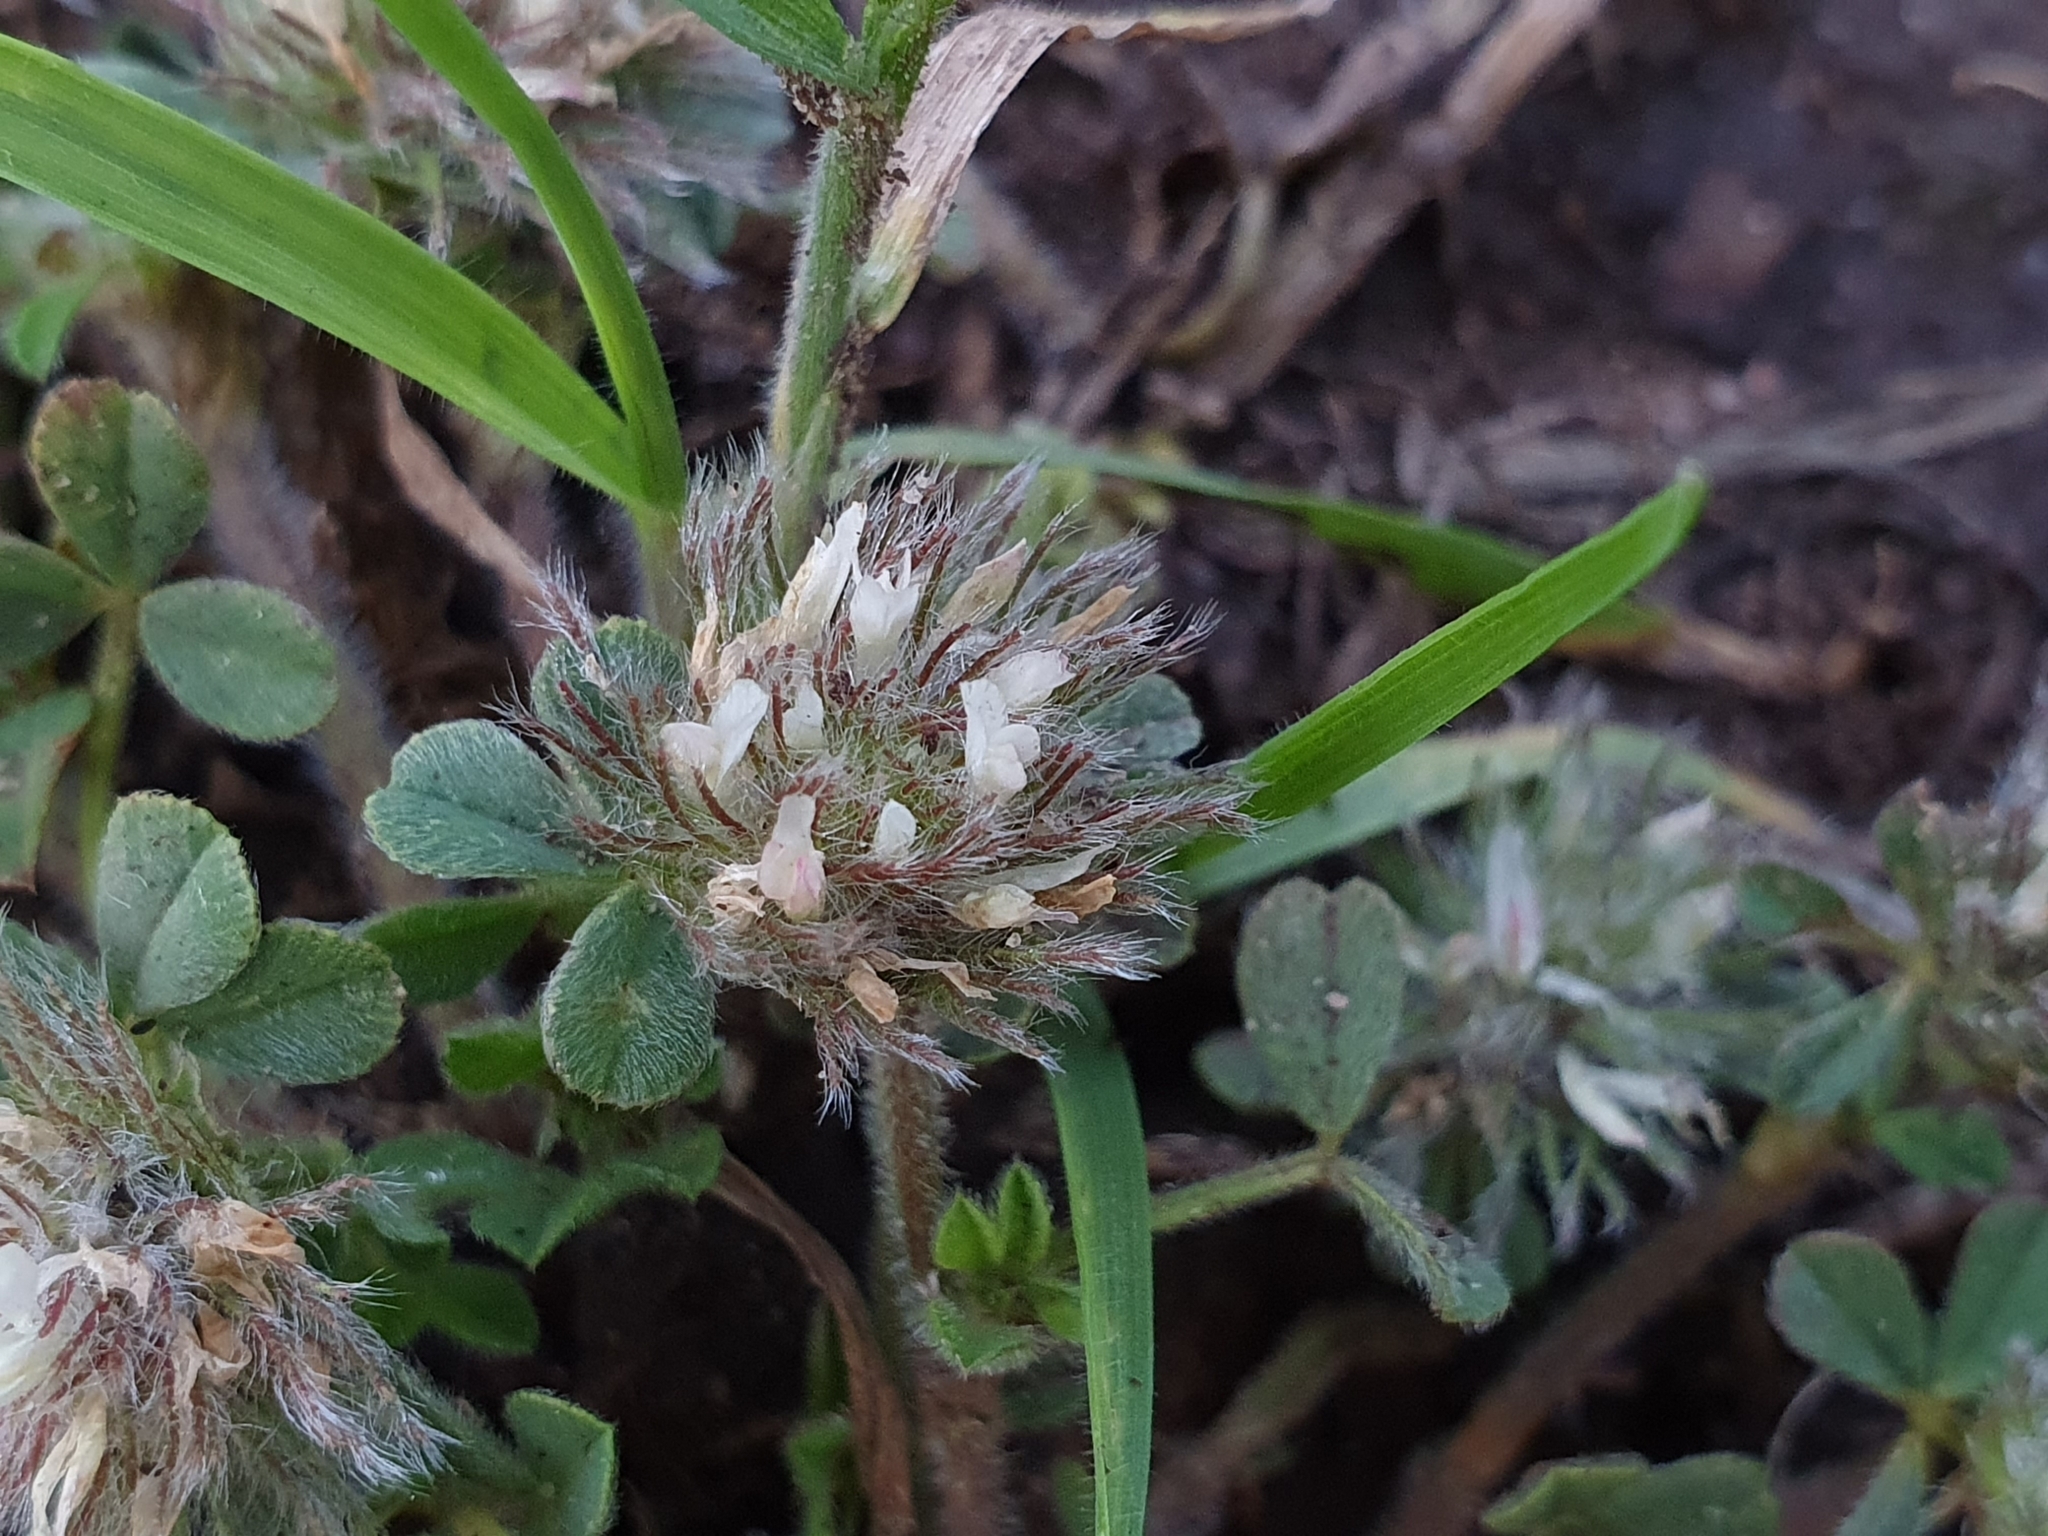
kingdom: Plantae
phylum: Tracheophyta
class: Magnoliopsida
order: Fabales
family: Fabaceae
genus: Trifolium
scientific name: Trifolium cherleri
